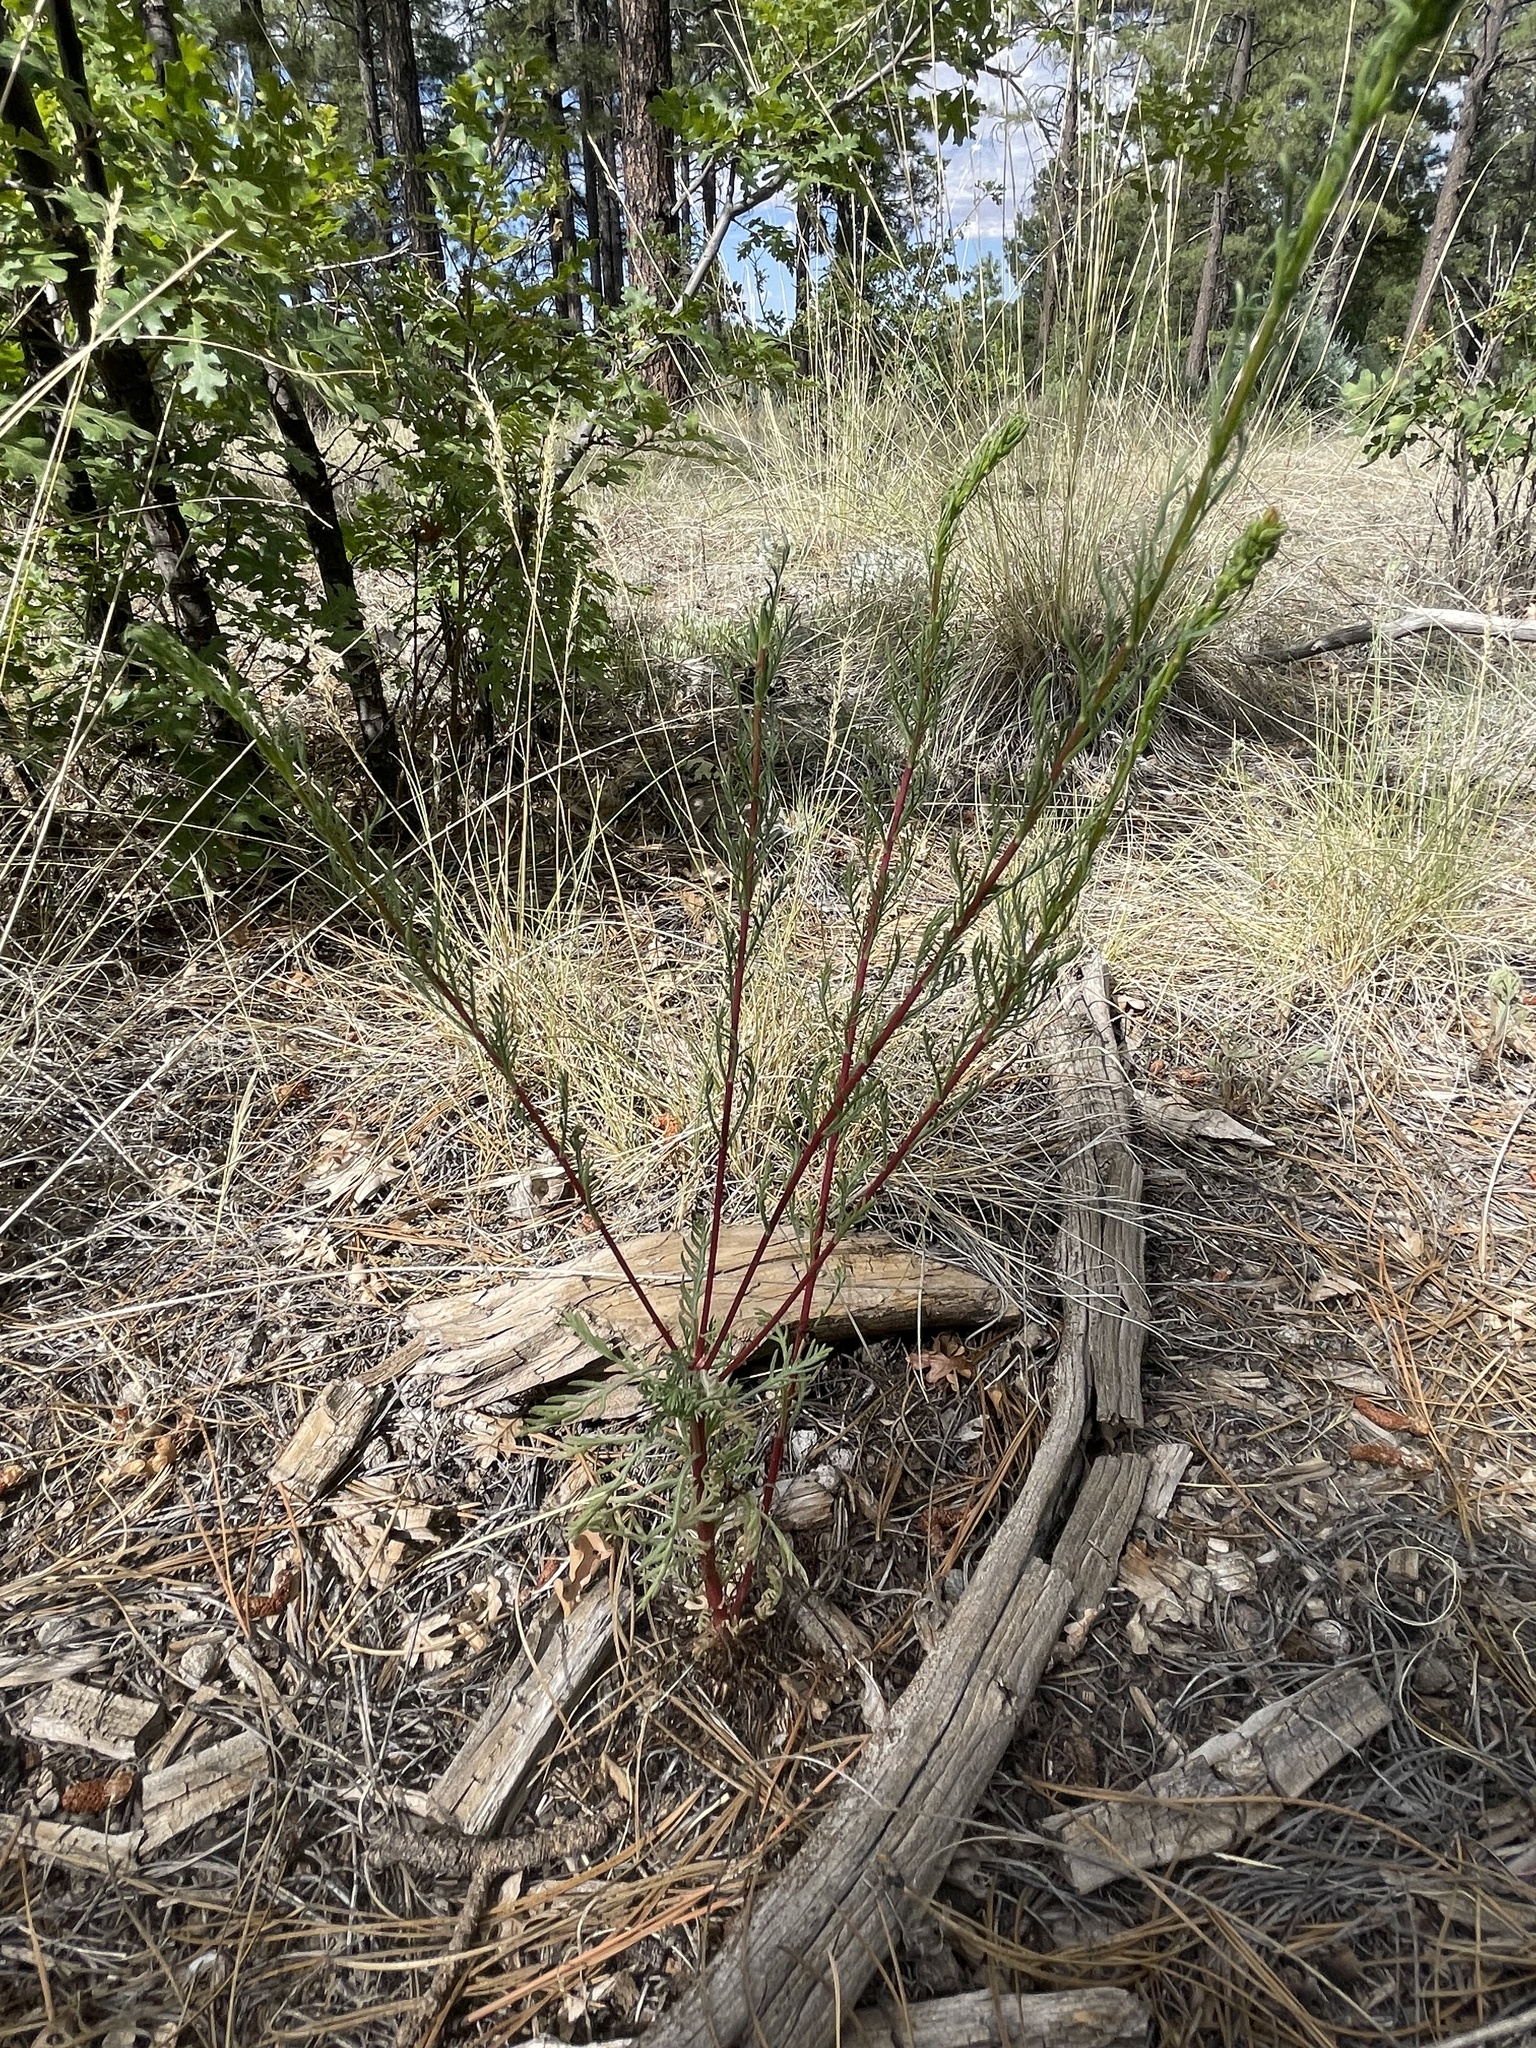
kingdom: Plantae
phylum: Tracheophyta
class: Magnoliopsida
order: Ericales
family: Polemoniaceae
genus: Ipomopsis
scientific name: Ipomopsis aggregata
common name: Scarlet gilia
